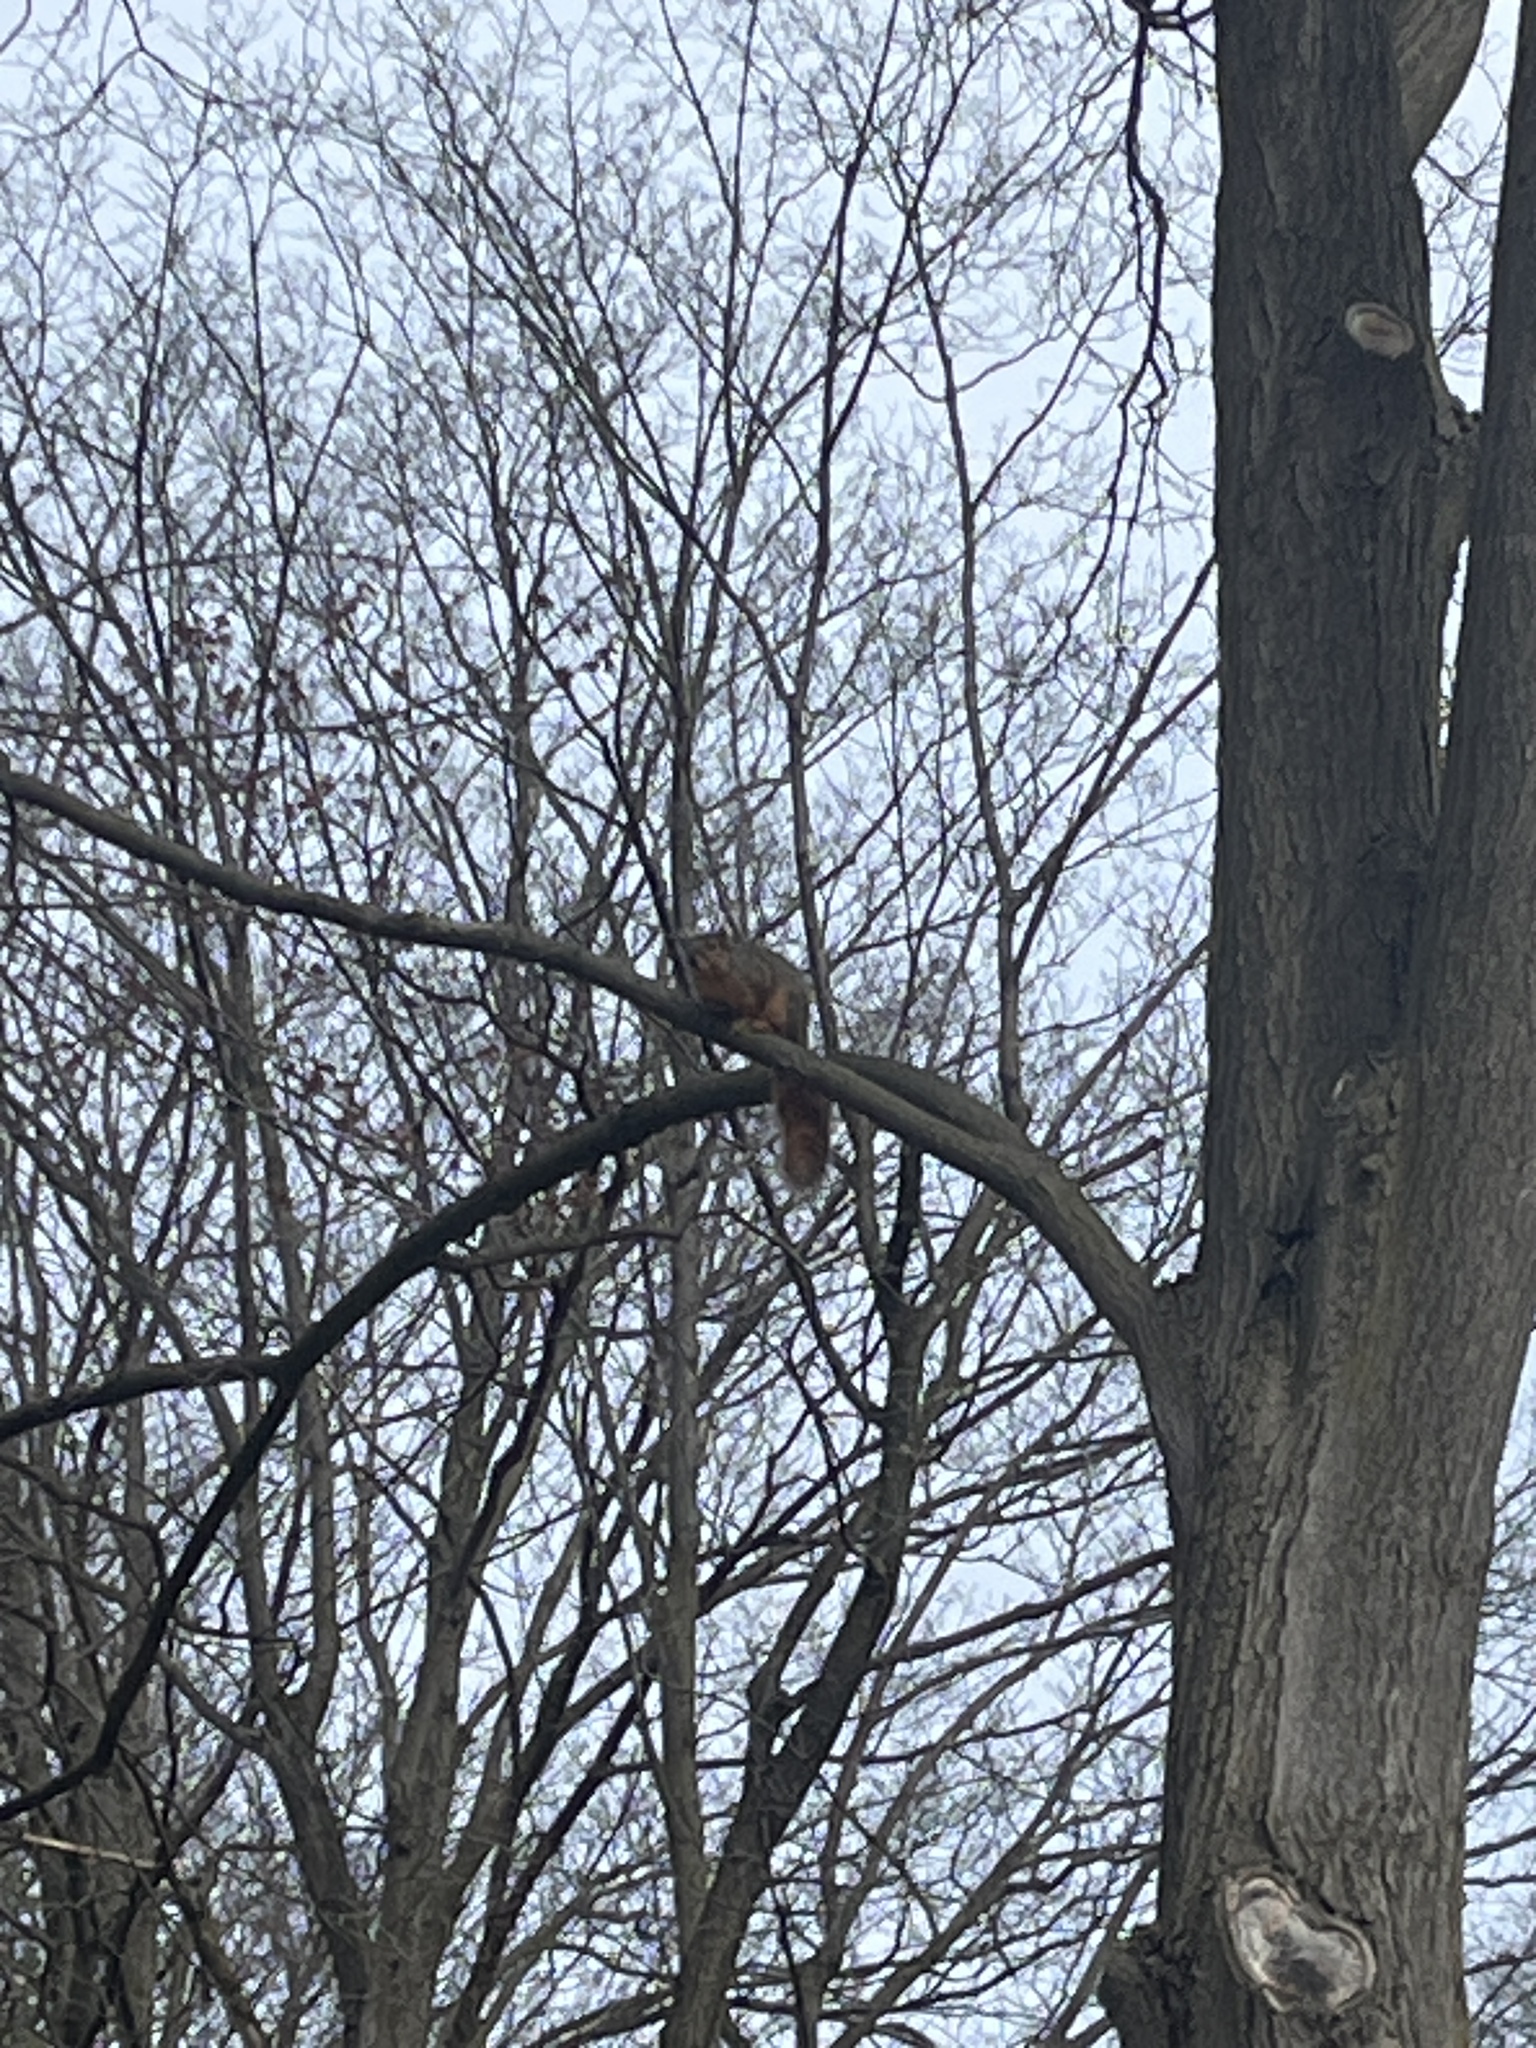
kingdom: Animalia
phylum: Chordata
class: Mammalia
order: Rodentia
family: Sciuridae
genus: Sciurus
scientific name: Sciurus niger
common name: Fox squirrel
